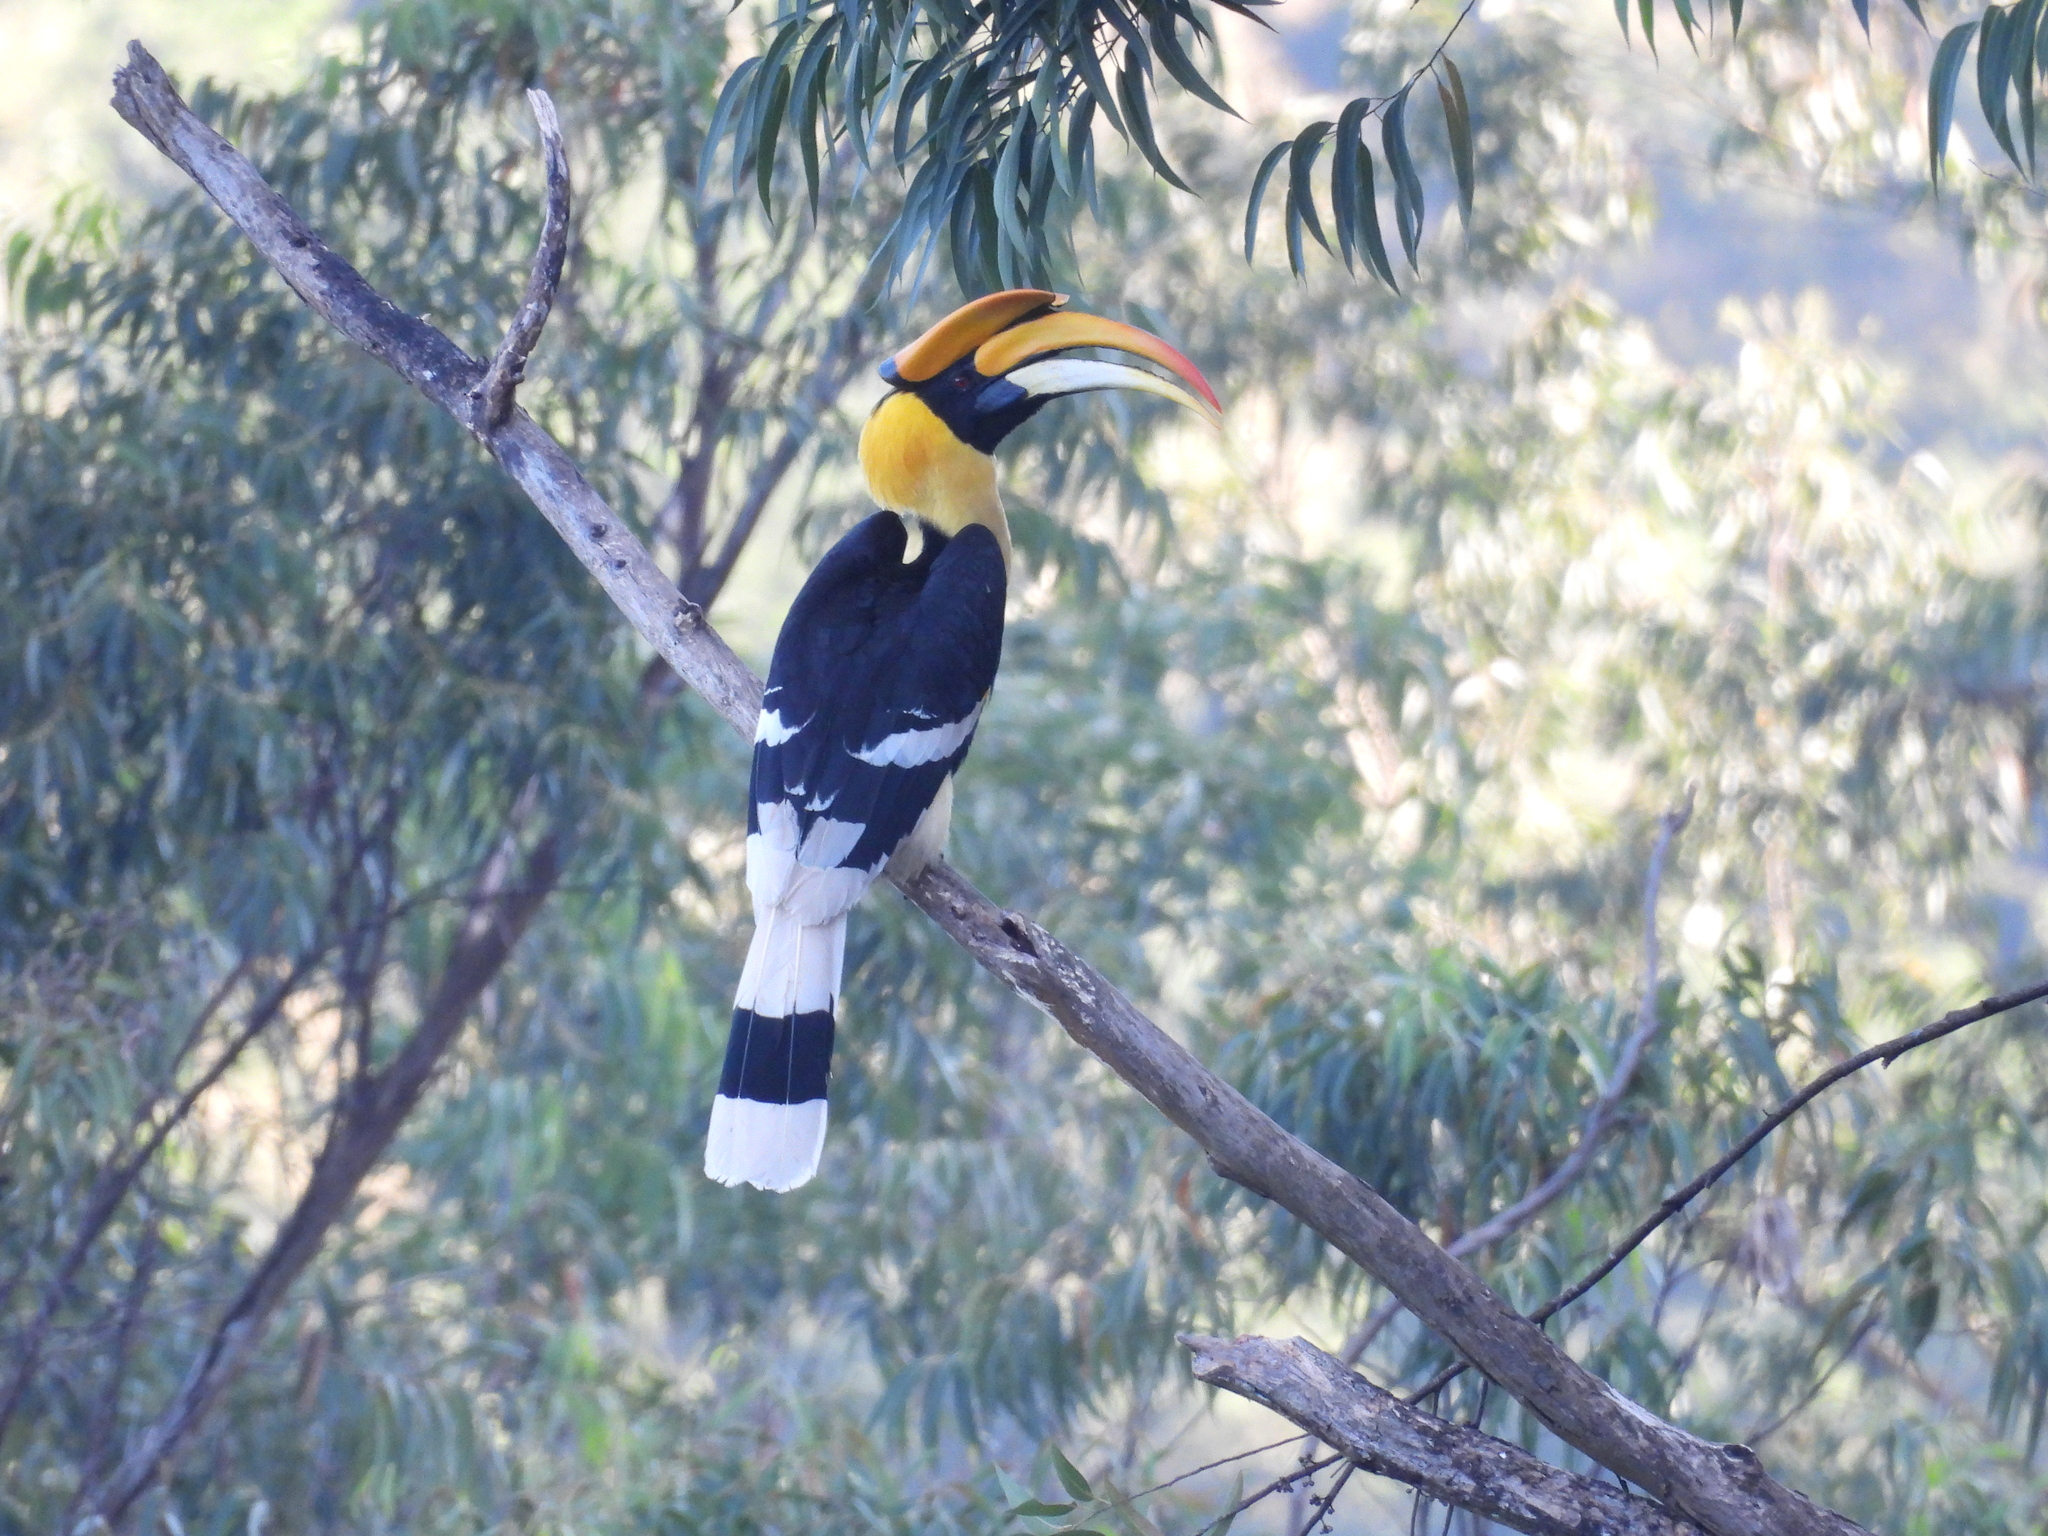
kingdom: Animalia
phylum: Chordata
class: Aves
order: Bucerotiformes
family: Bucerotidae
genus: Buceros
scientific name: Buceros bicornis
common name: Great hornbill
